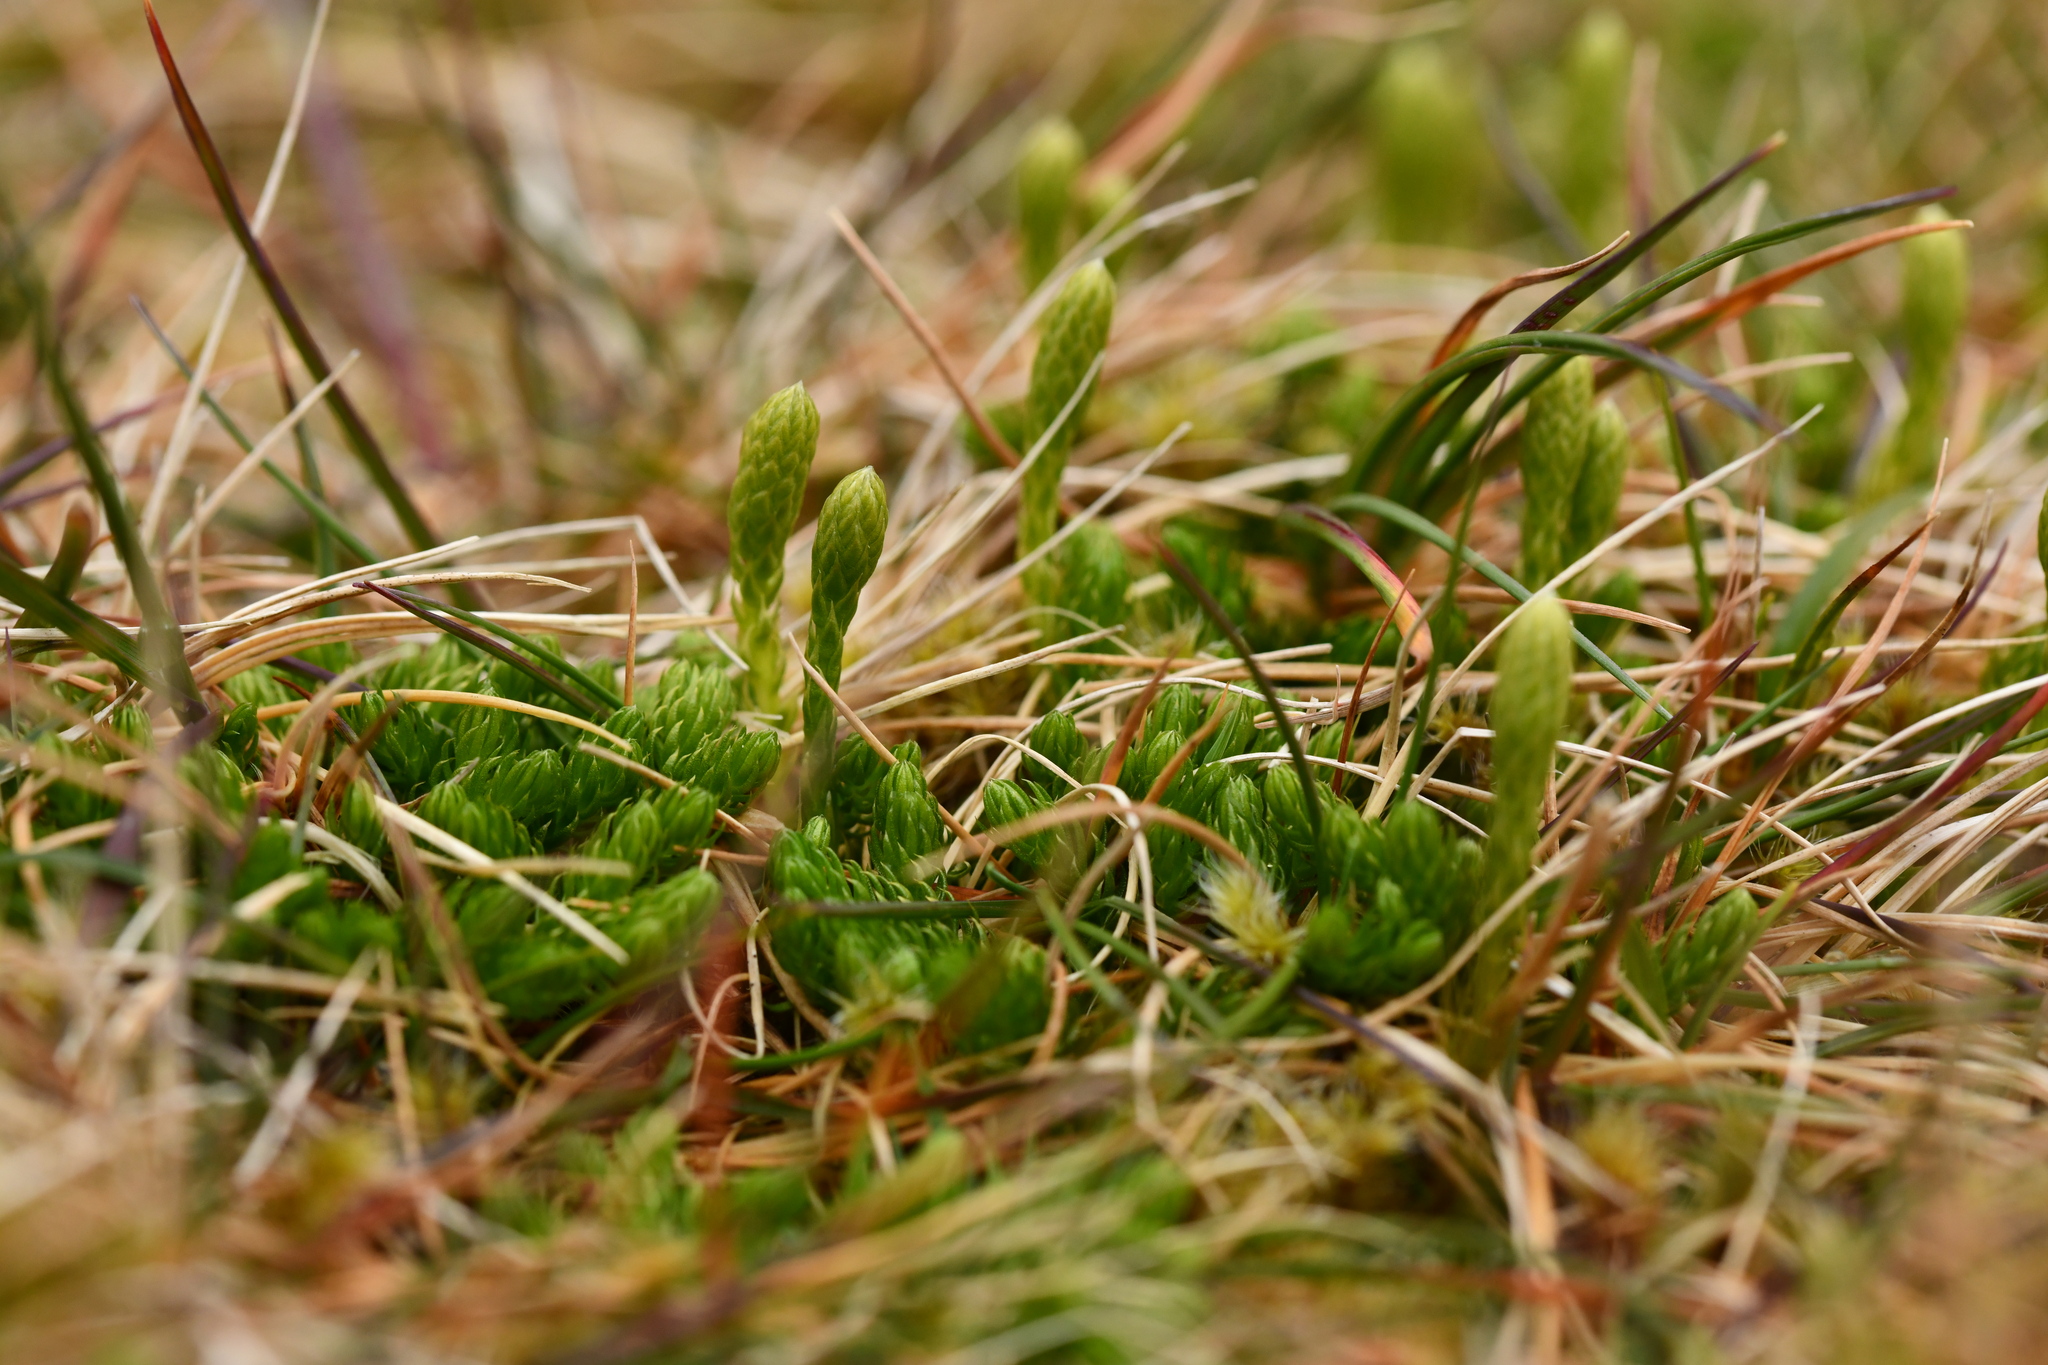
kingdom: Plantae
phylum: Tracheophyta
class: Lycopodiopsida
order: Lycopodiales
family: Lycopodiaceae
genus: Austrolycopodium
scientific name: Austrolycopodium magellanicum
